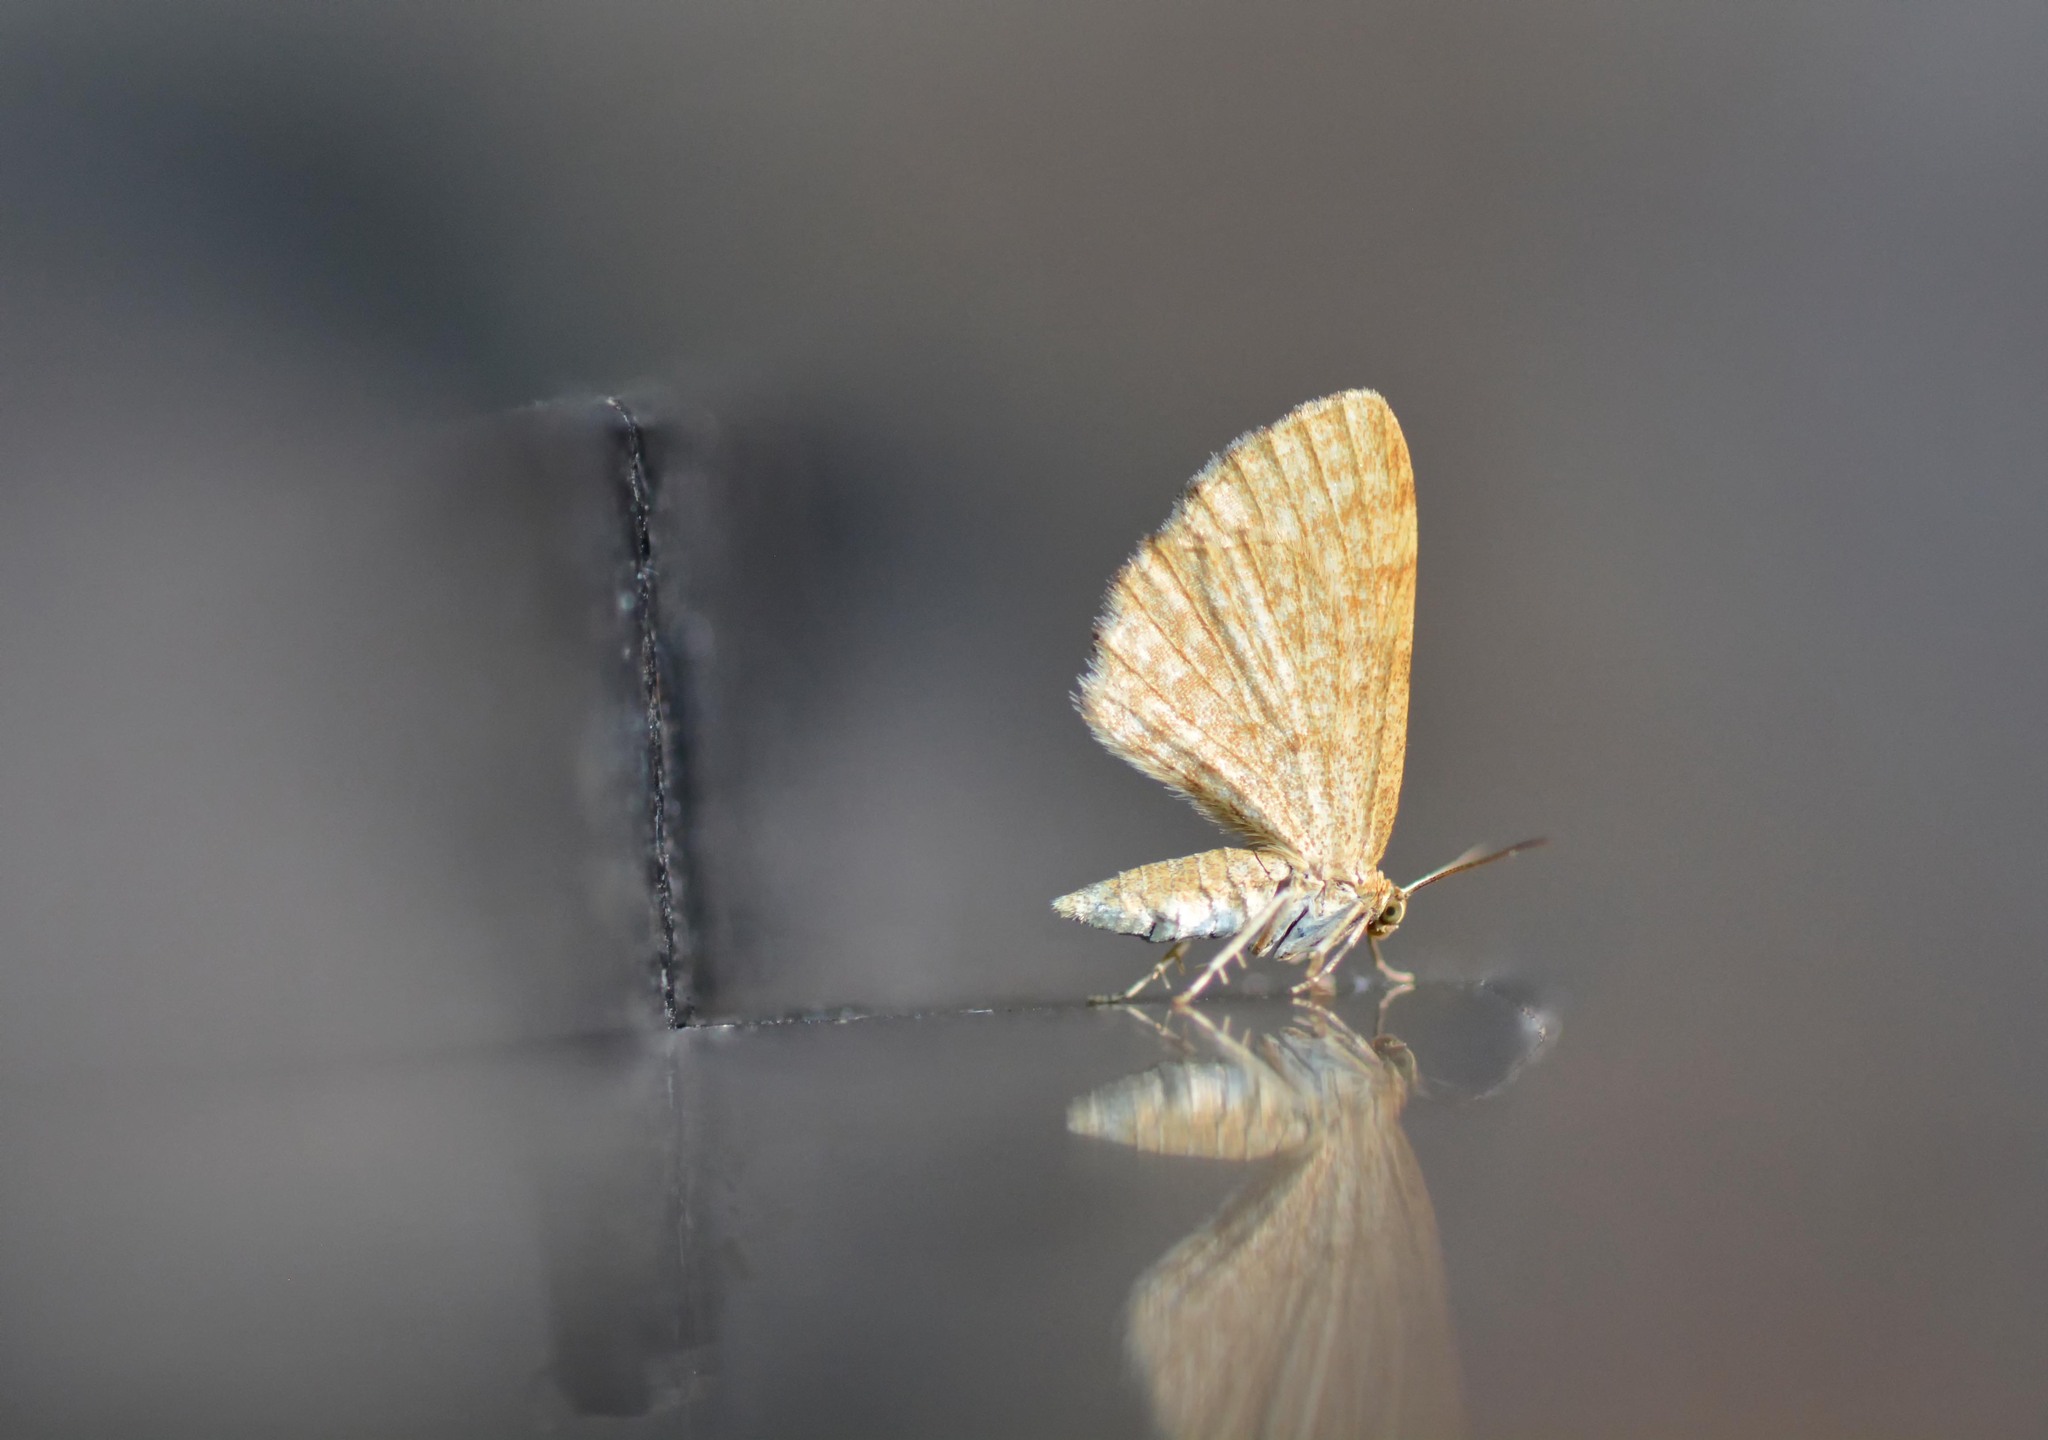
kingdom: Animalia
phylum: Arthropoda
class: Insecta
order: Lepidoptera
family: Geometridae
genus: Euchoeca
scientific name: Euchoeca nebulata
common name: Dingy shell
